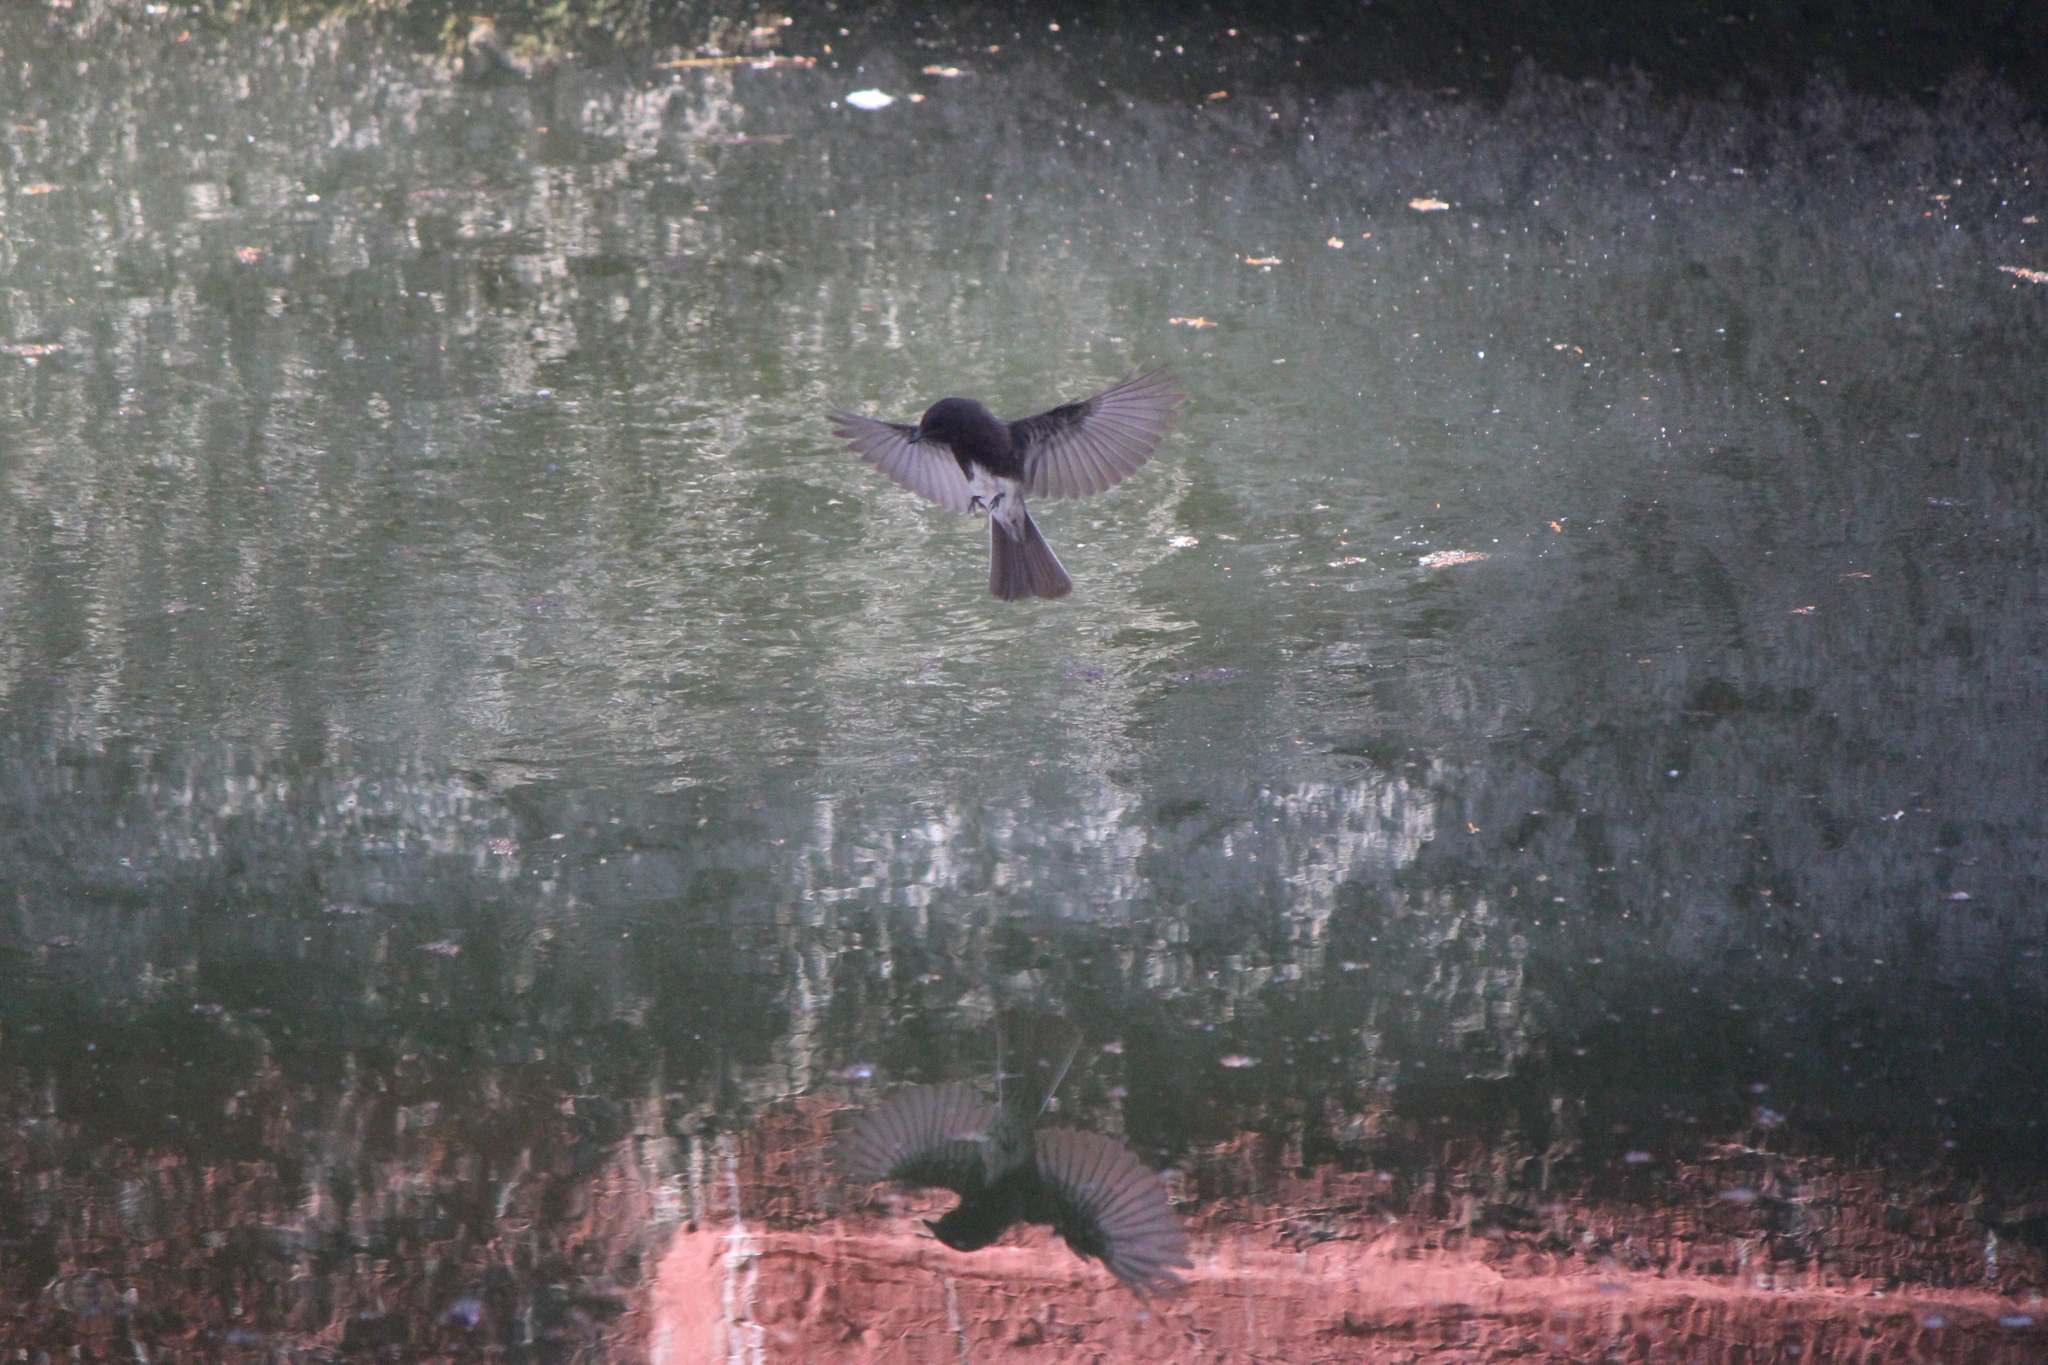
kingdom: Animalia
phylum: Chordata
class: Aves
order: Passeriformes
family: Tyrannidae
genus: Sayornis
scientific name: Sayornis nigricans
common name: Black phoebe
